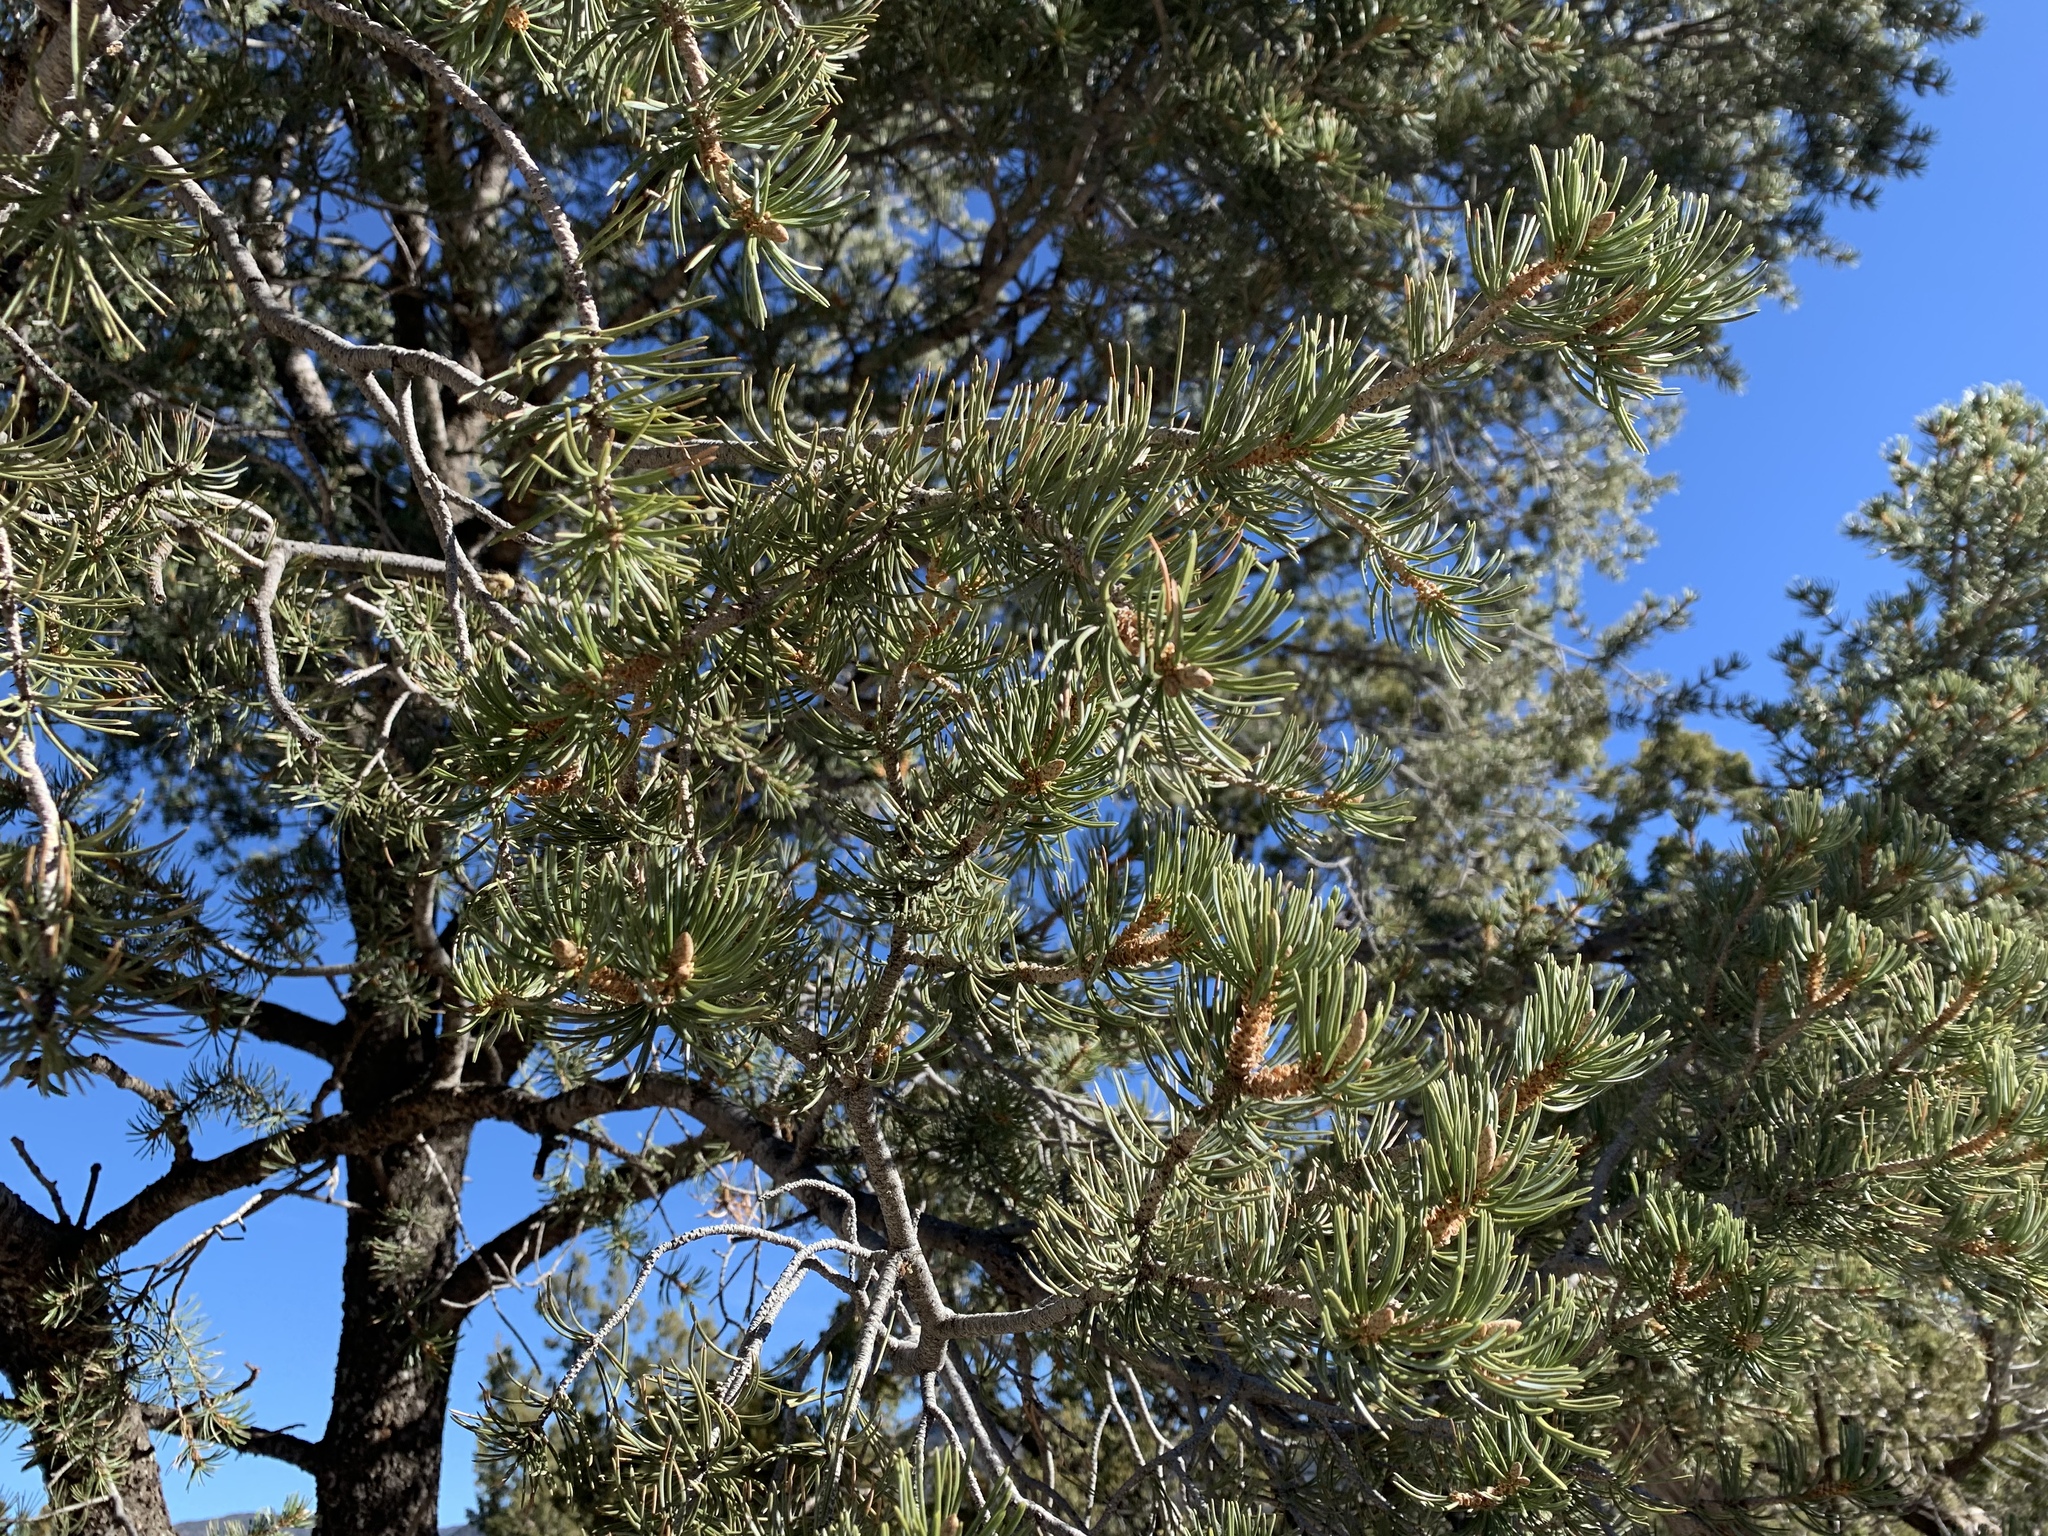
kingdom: Plantae
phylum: Tracheophyta
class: Pinopsida
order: Pinales
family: Pinaceae
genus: Pinus
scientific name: Pinus edulis
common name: Colorado pinyon
